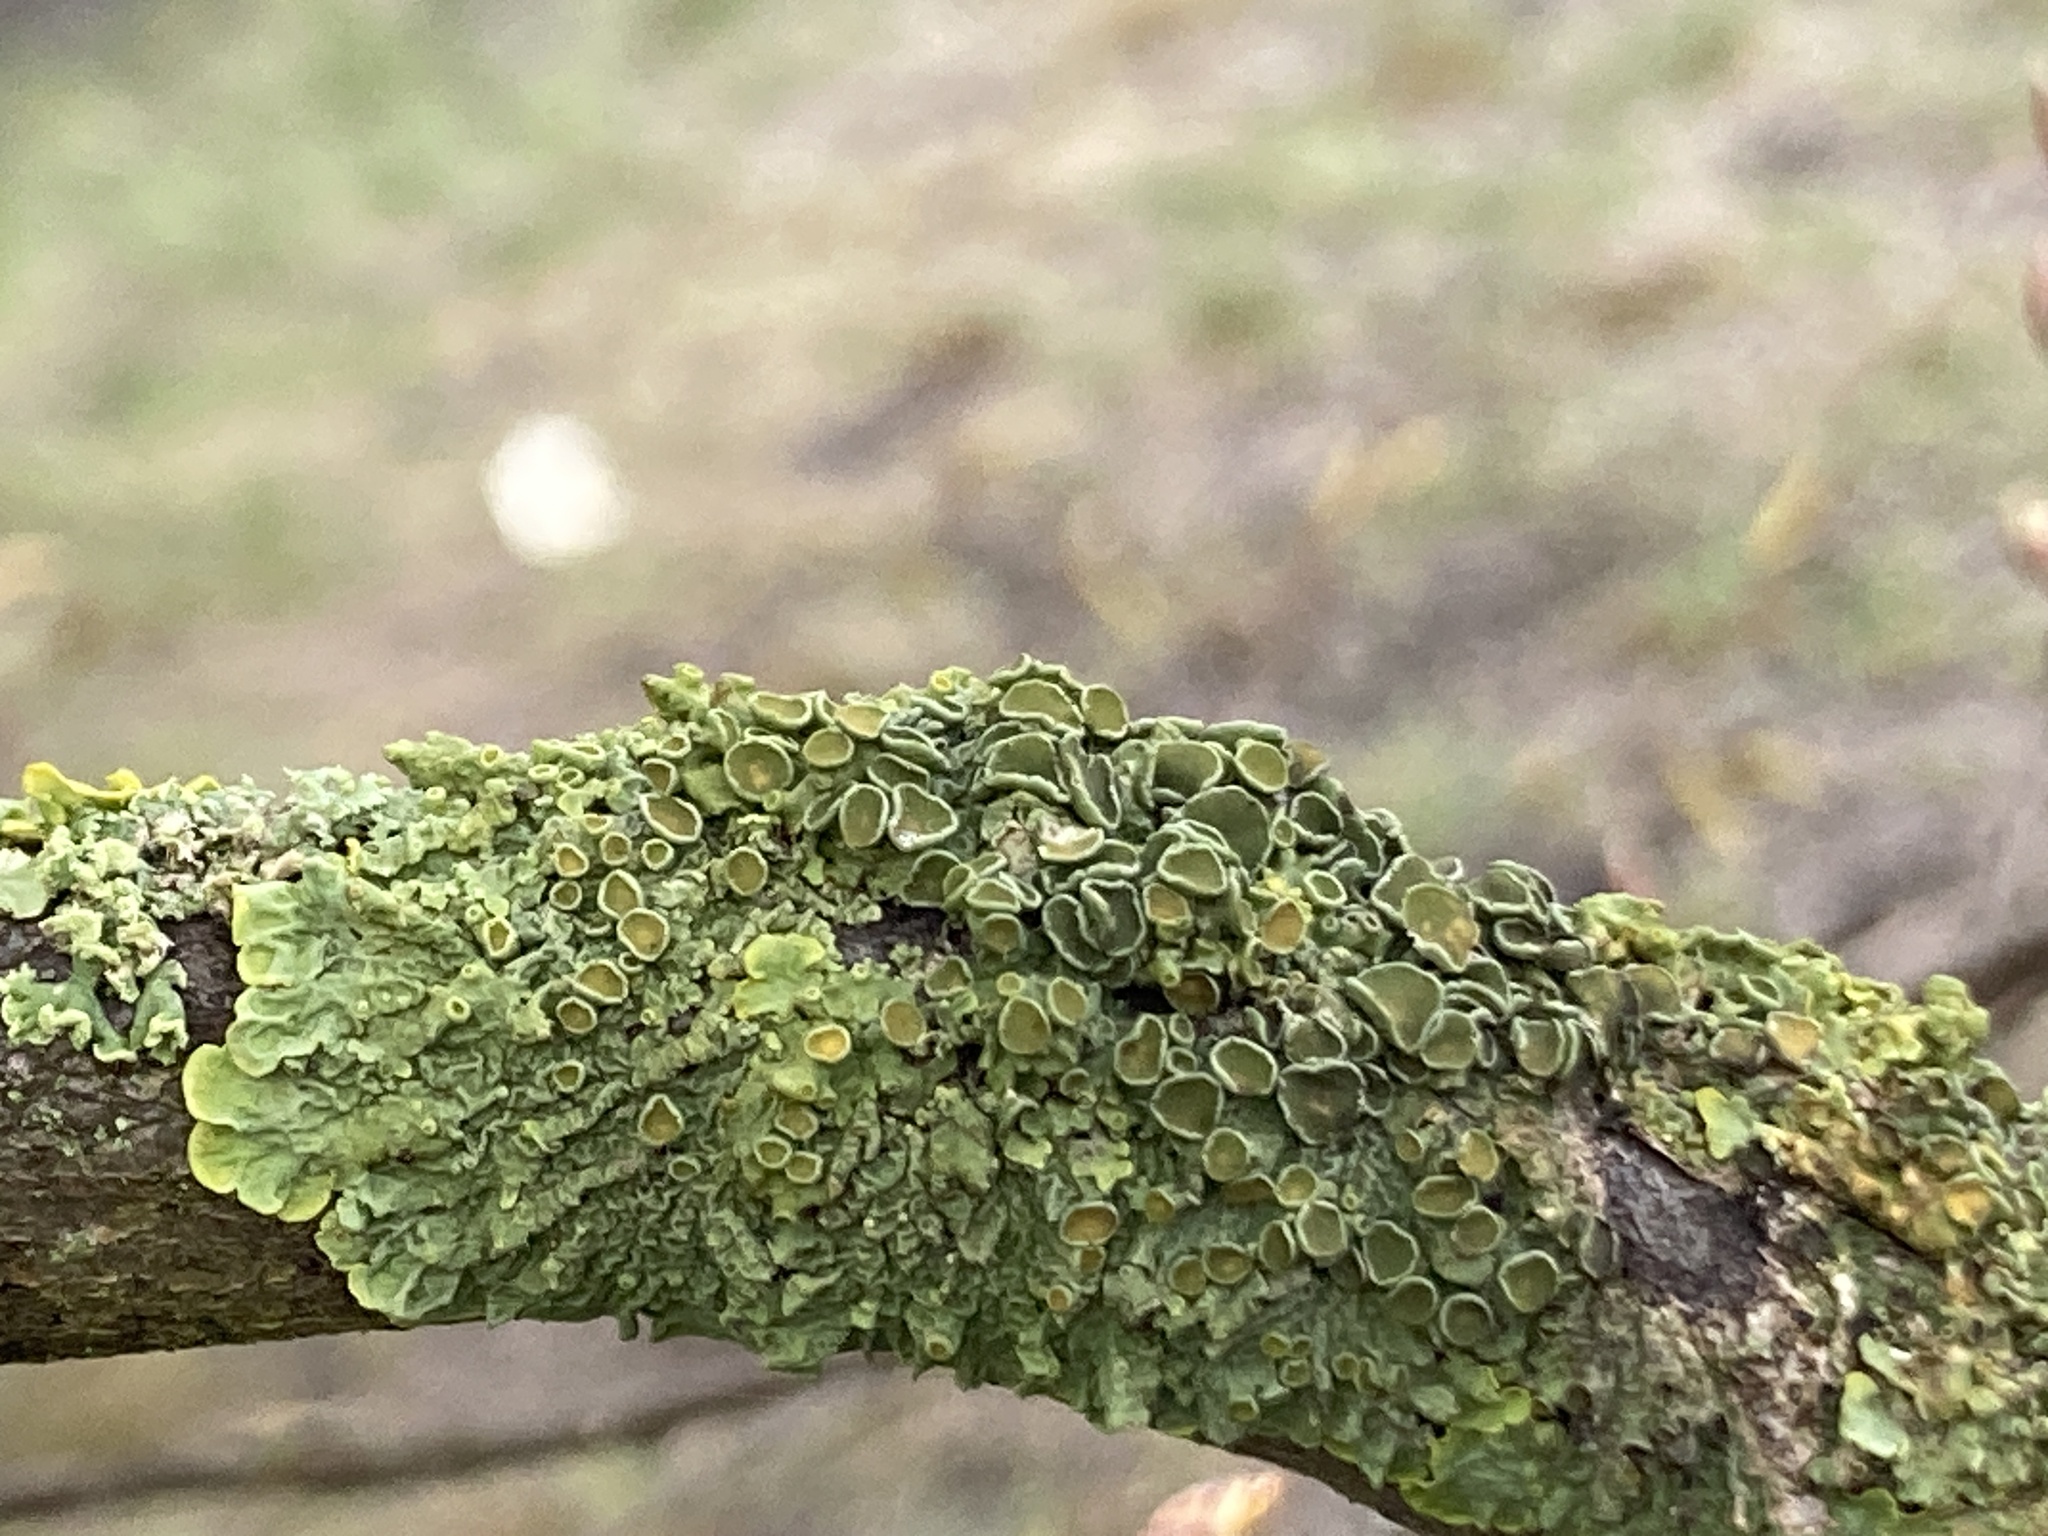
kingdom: Fungi
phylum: Ascomycota
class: Lecanoromycetes
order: Teloschistales
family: Teloschistaceae
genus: Xanthoria
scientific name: Xanthoria parietina
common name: Common orange lichen
